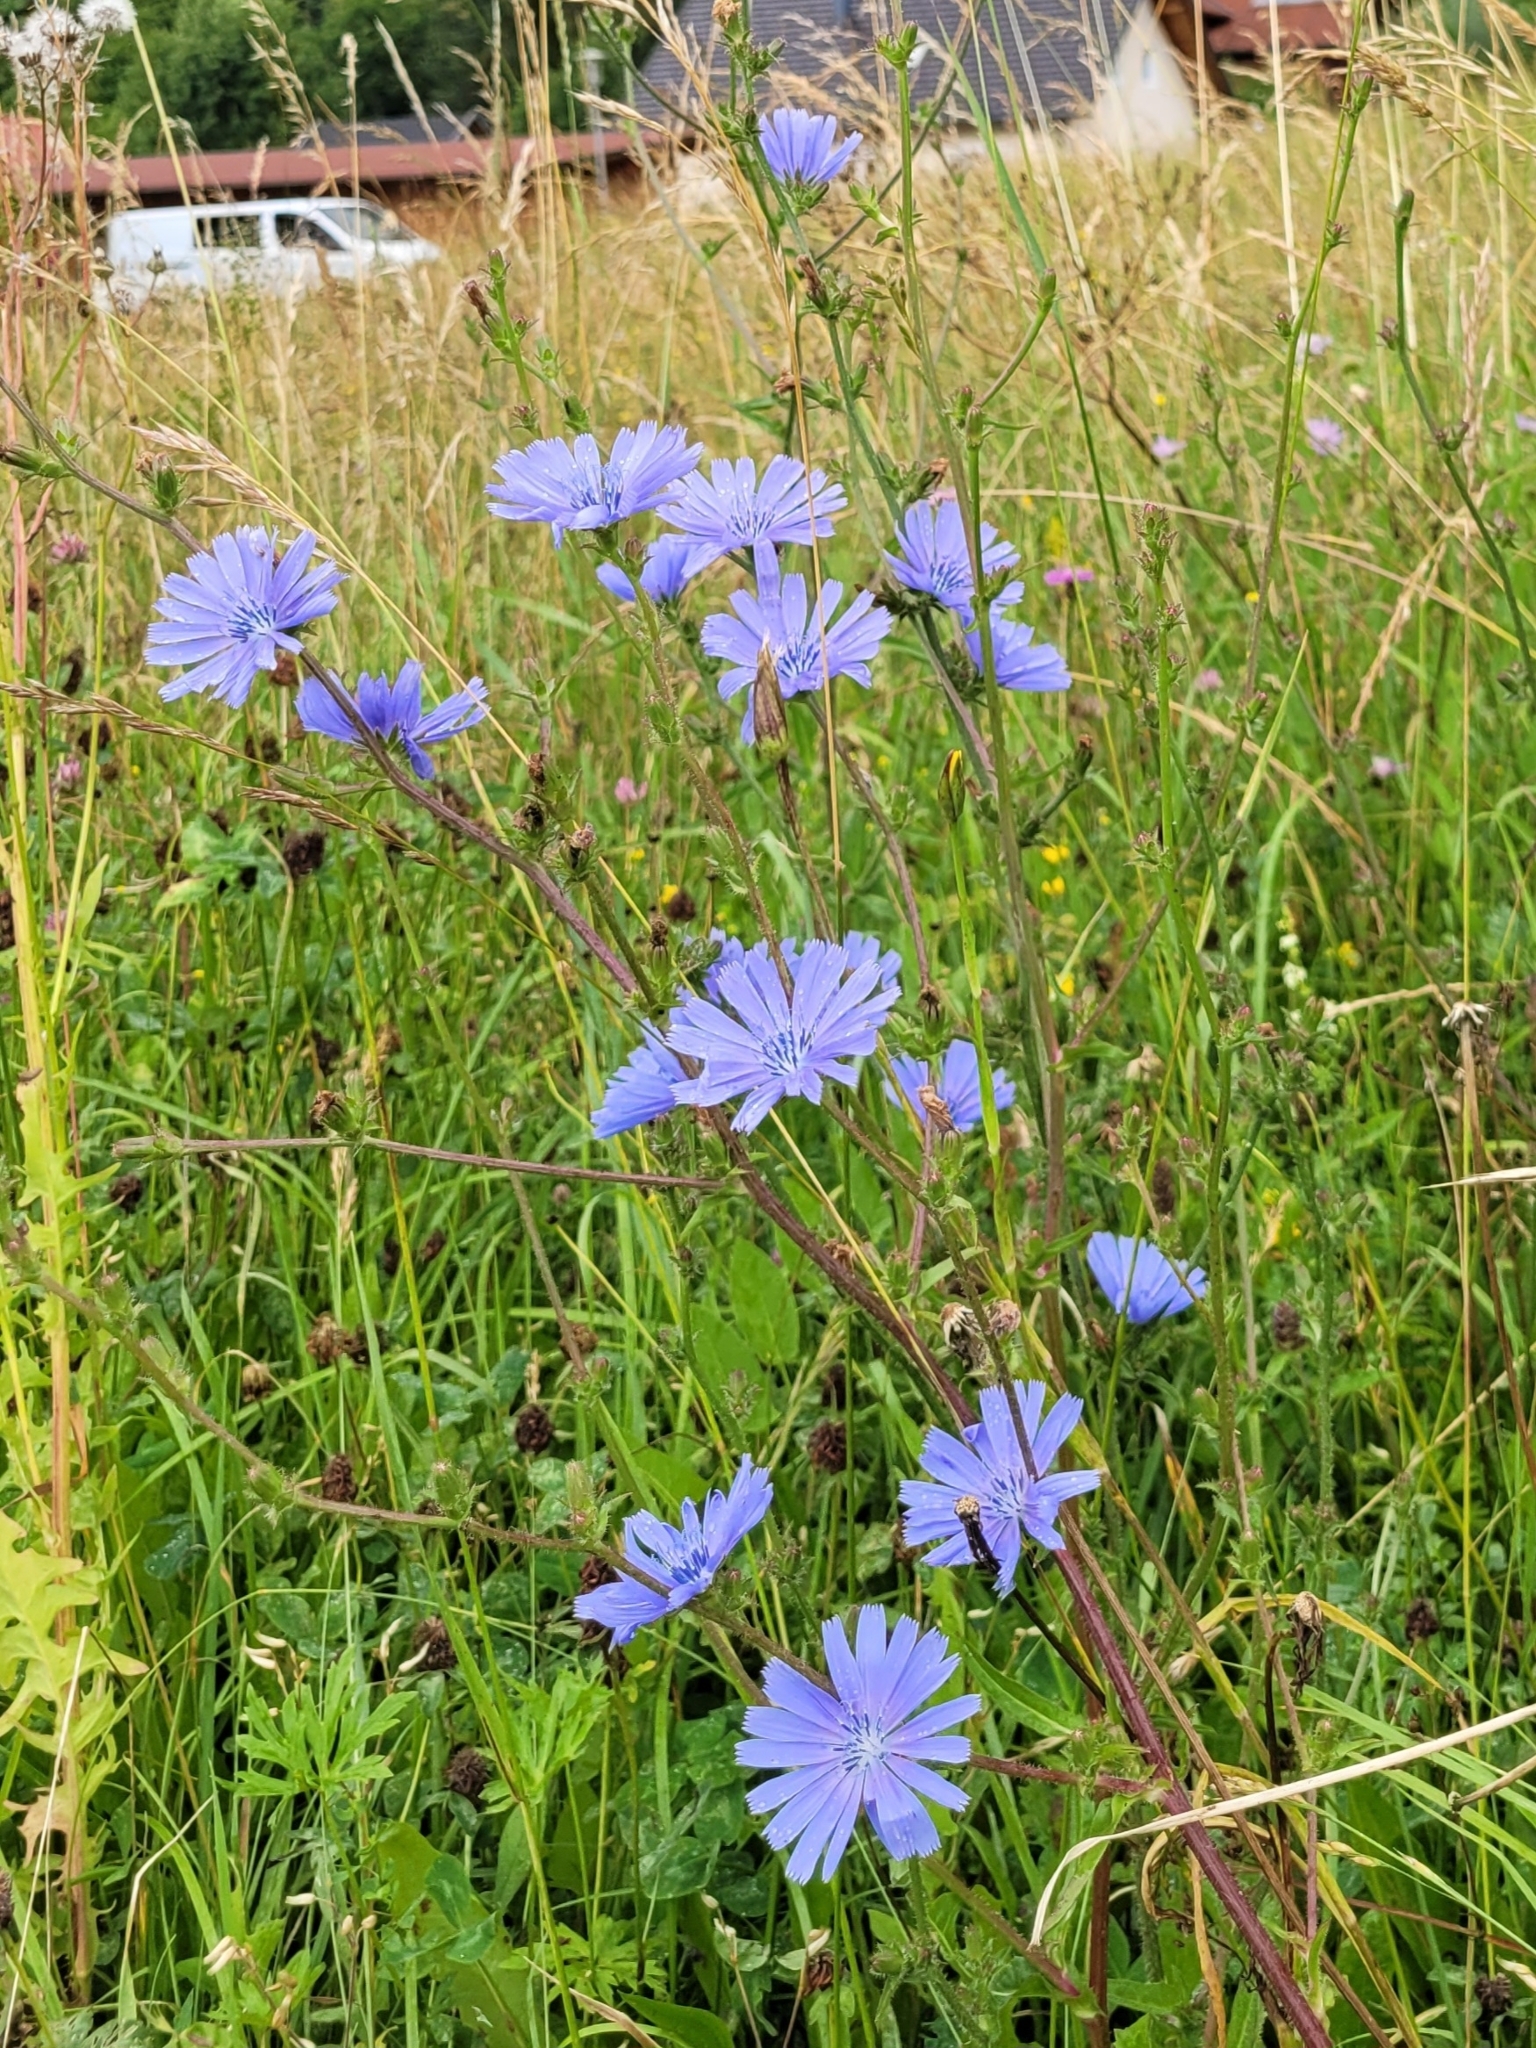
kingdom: Plantae
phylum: Tracheophyta
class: Magnoliopsida
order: Asterales
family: Asteraceae
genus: Cichorium
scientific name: Cichorium intybus
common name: Chicory
